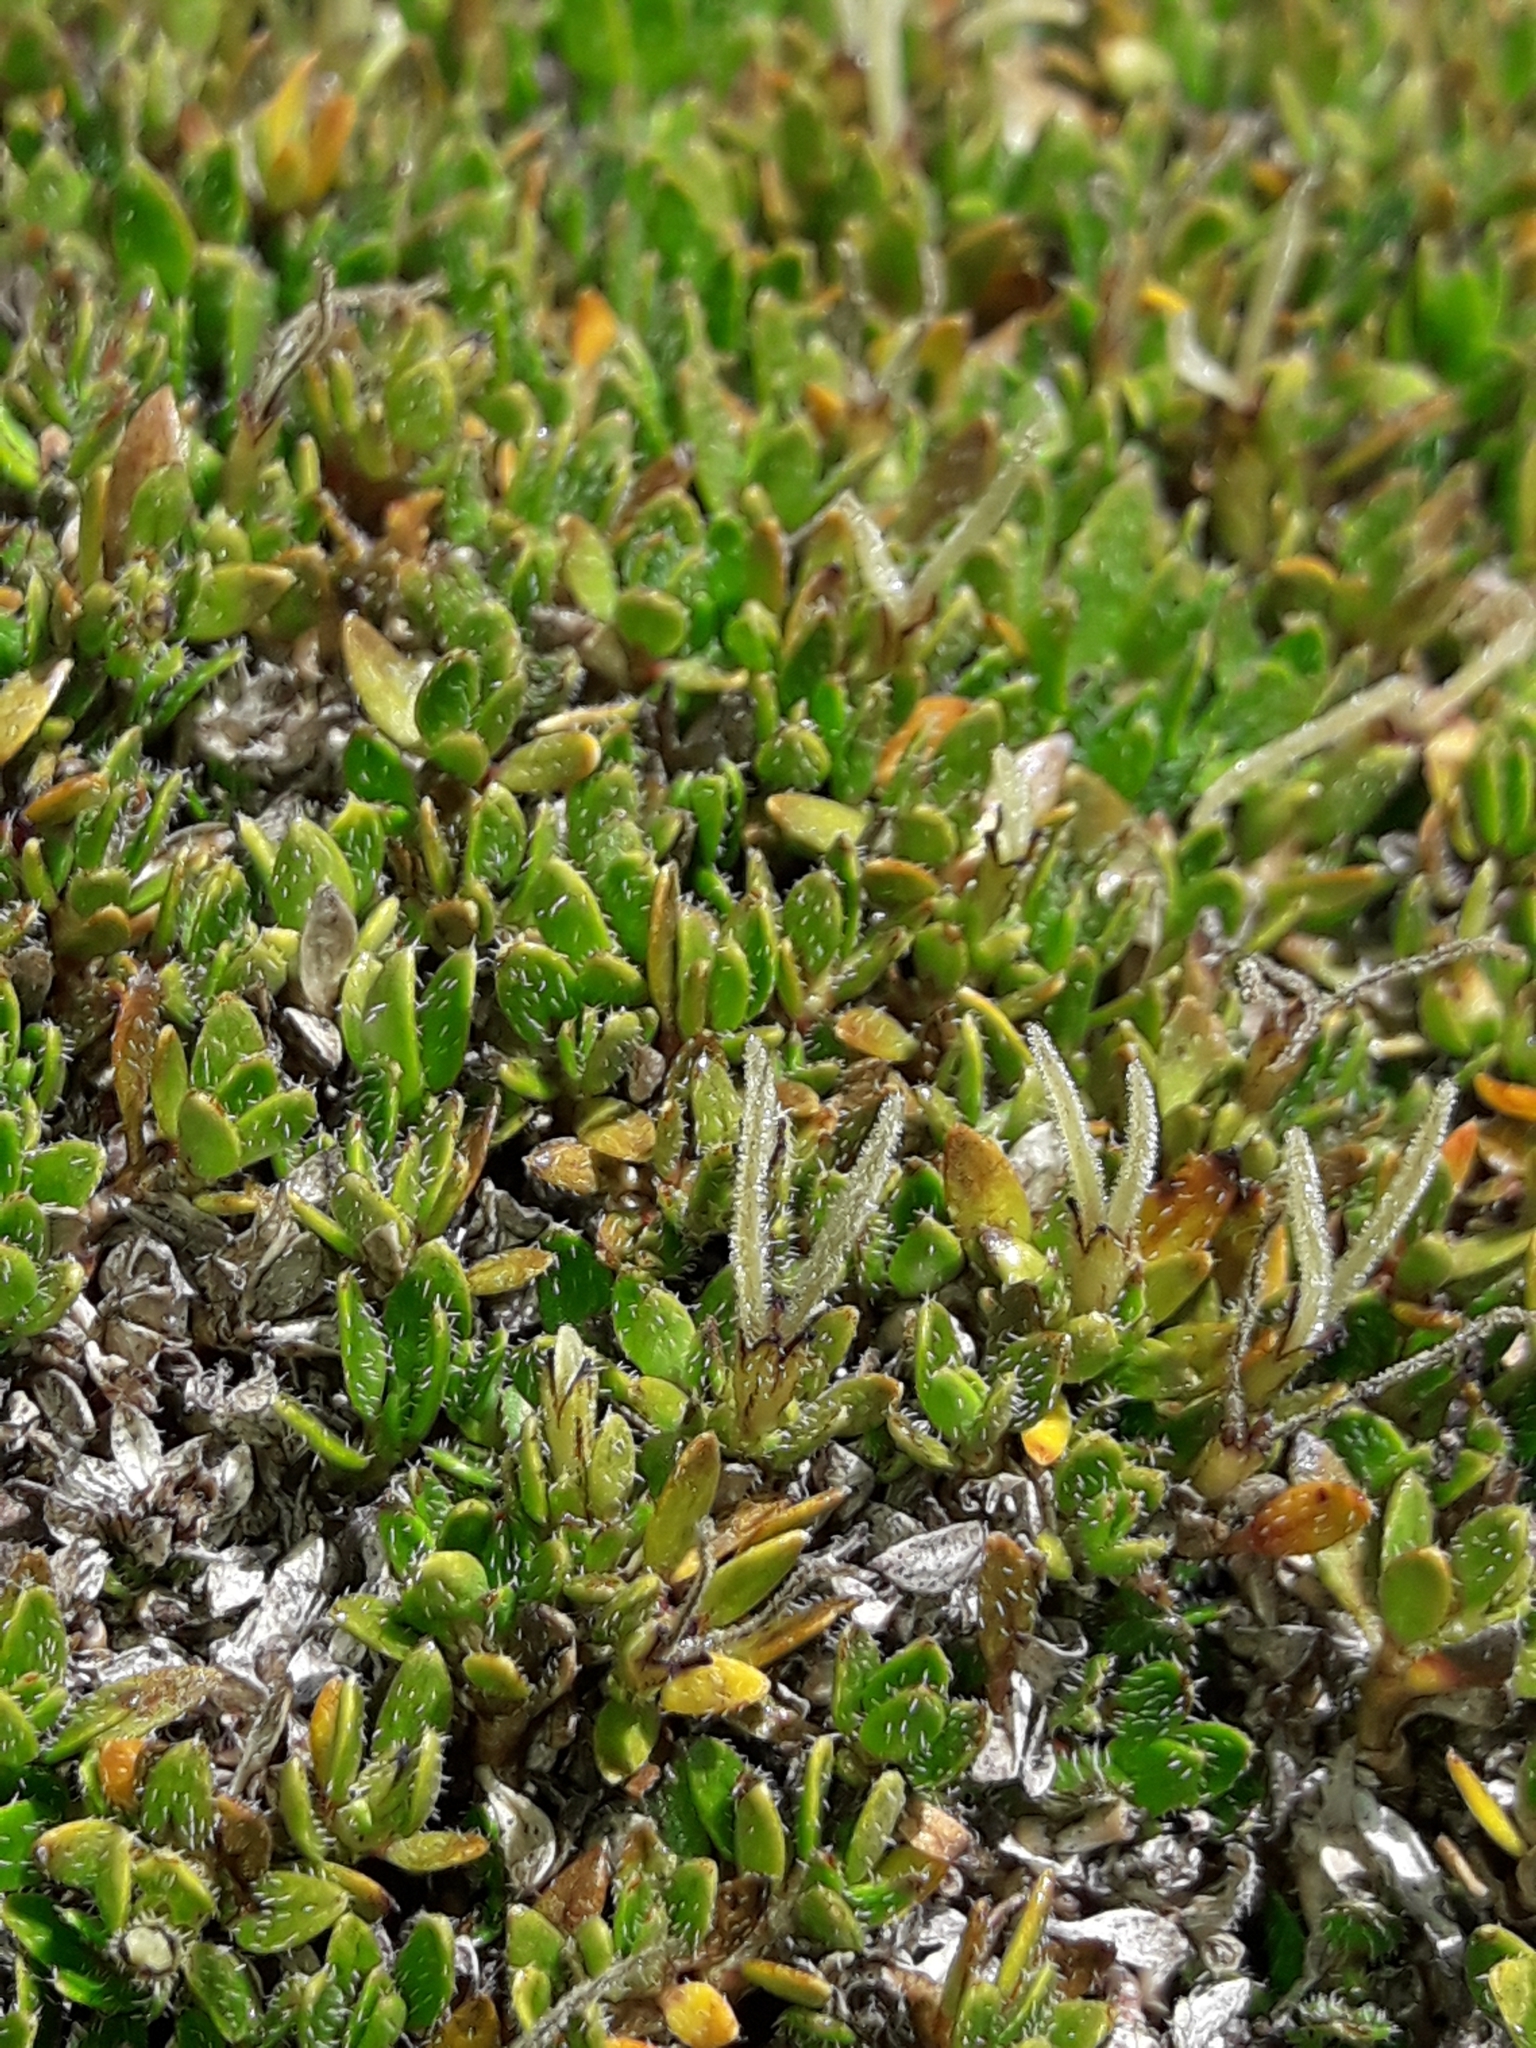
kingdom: Plantae
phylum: Tracheophyta
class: Magnoliopsida
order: Gentianales
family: Rubiaceae
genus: Coprosma
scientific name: Coprosma atropurpurea
